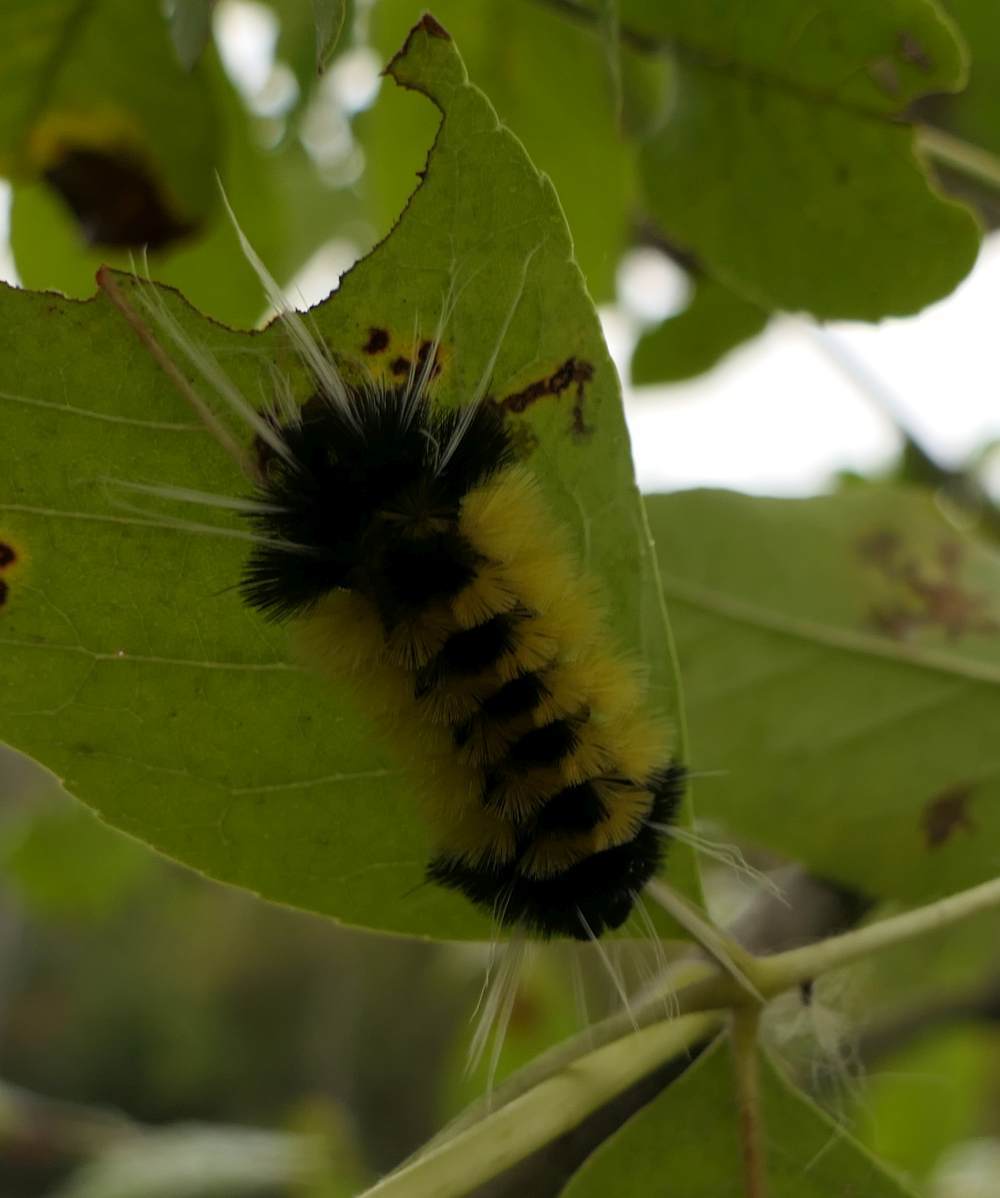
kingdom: Animalia
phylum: Arthropoda
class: Insecta
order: Lepidoptera
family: Erebidae
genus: Lophocampa
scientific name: Lophocampa maculata
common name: Spotted tussock moth
